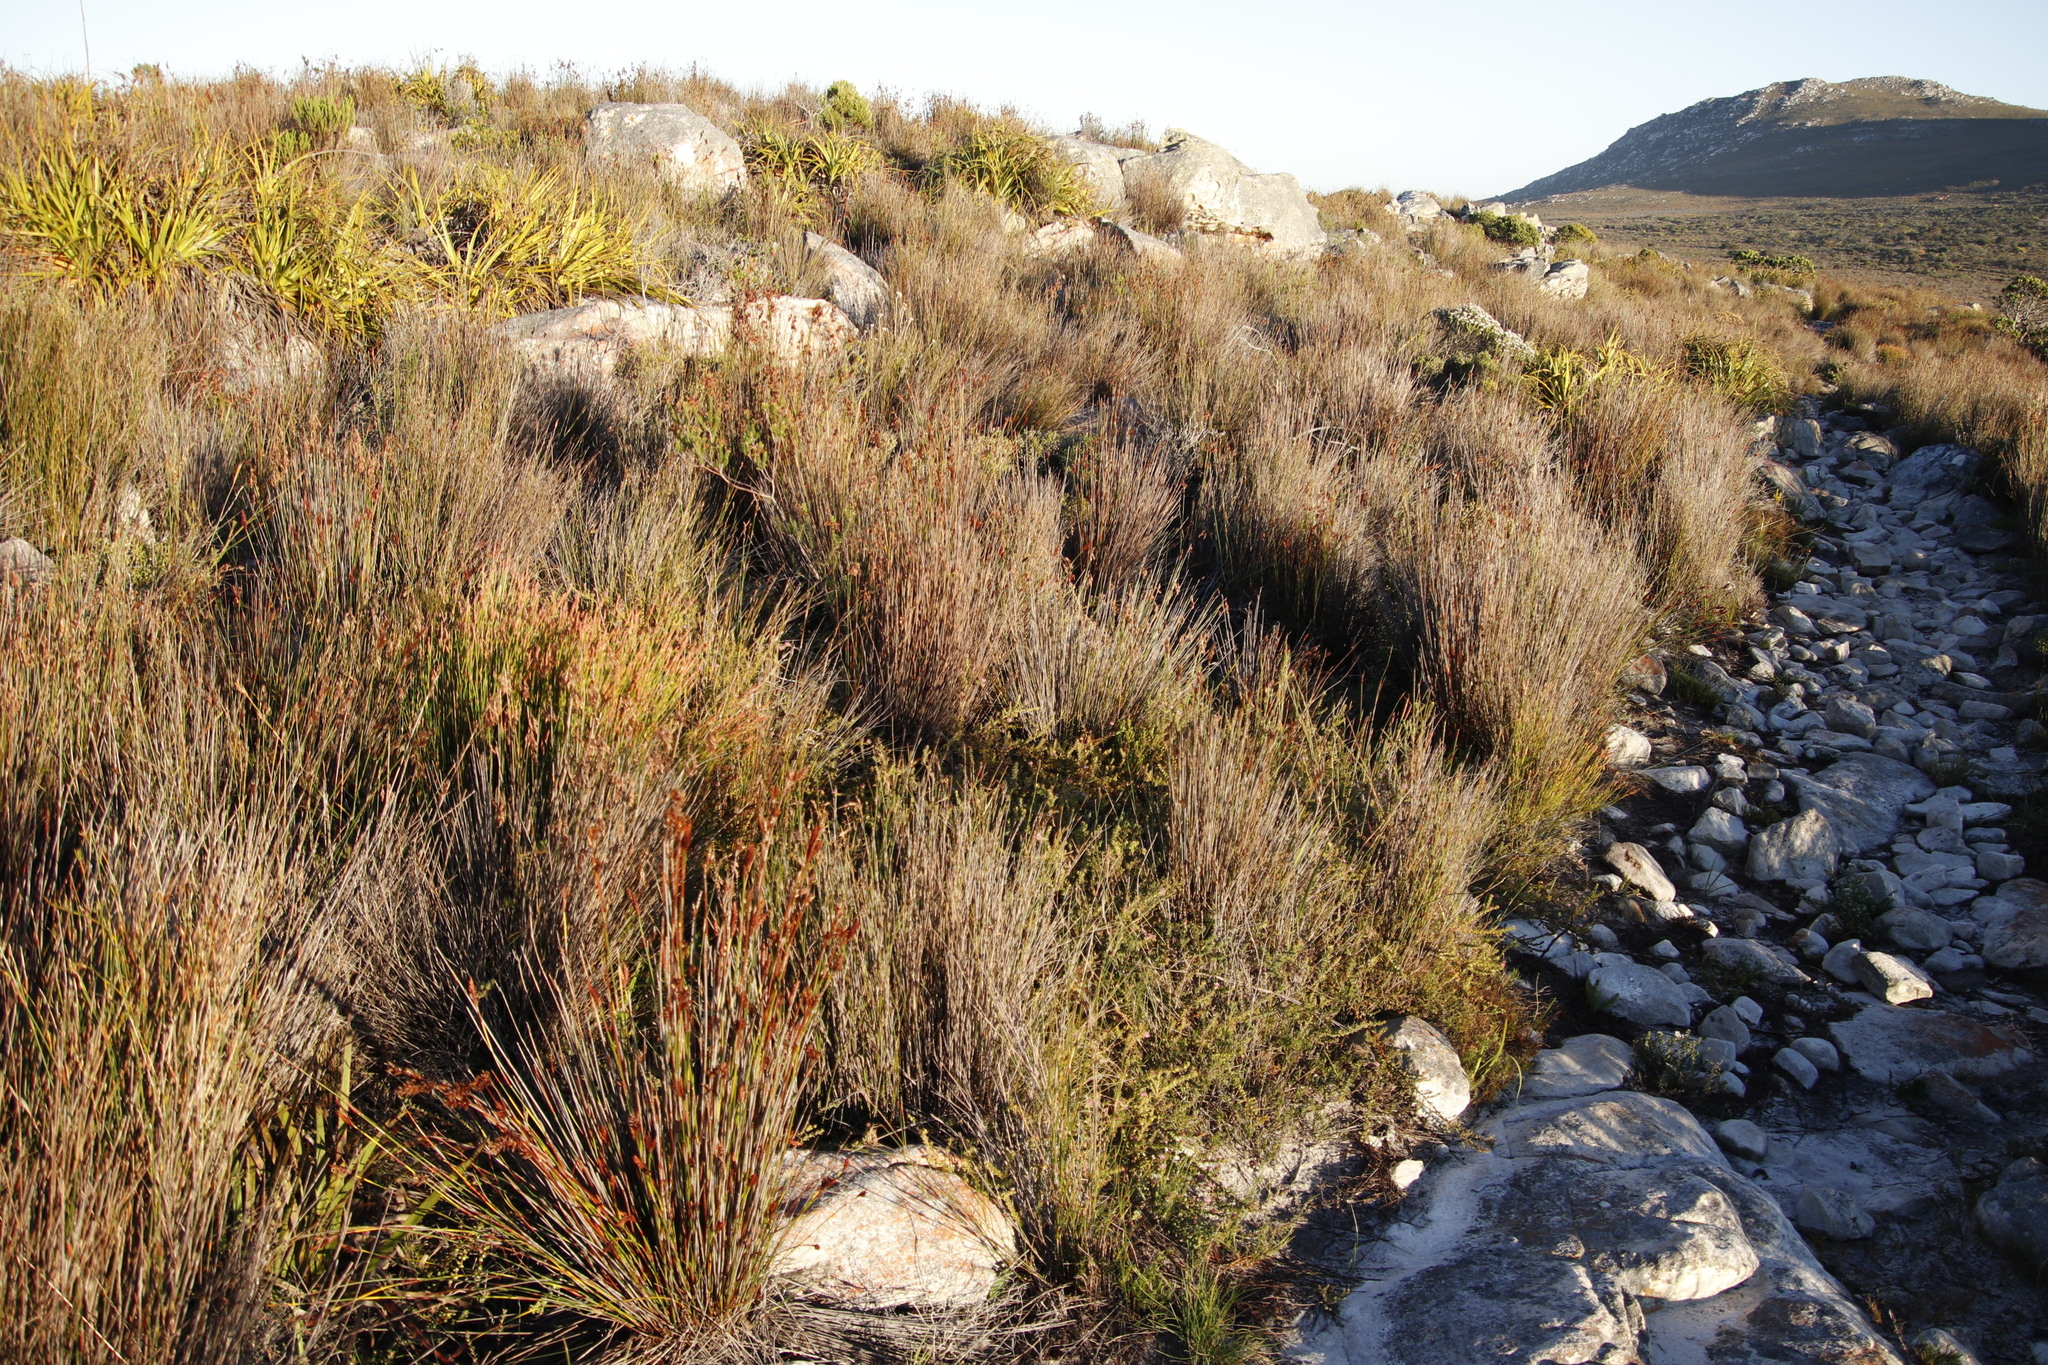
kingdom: Plantae
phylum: Tracheophyta
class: Magnoliopsida
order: Proteales
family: Proteaceae
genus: Diastella
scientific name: Diastella divaricata
